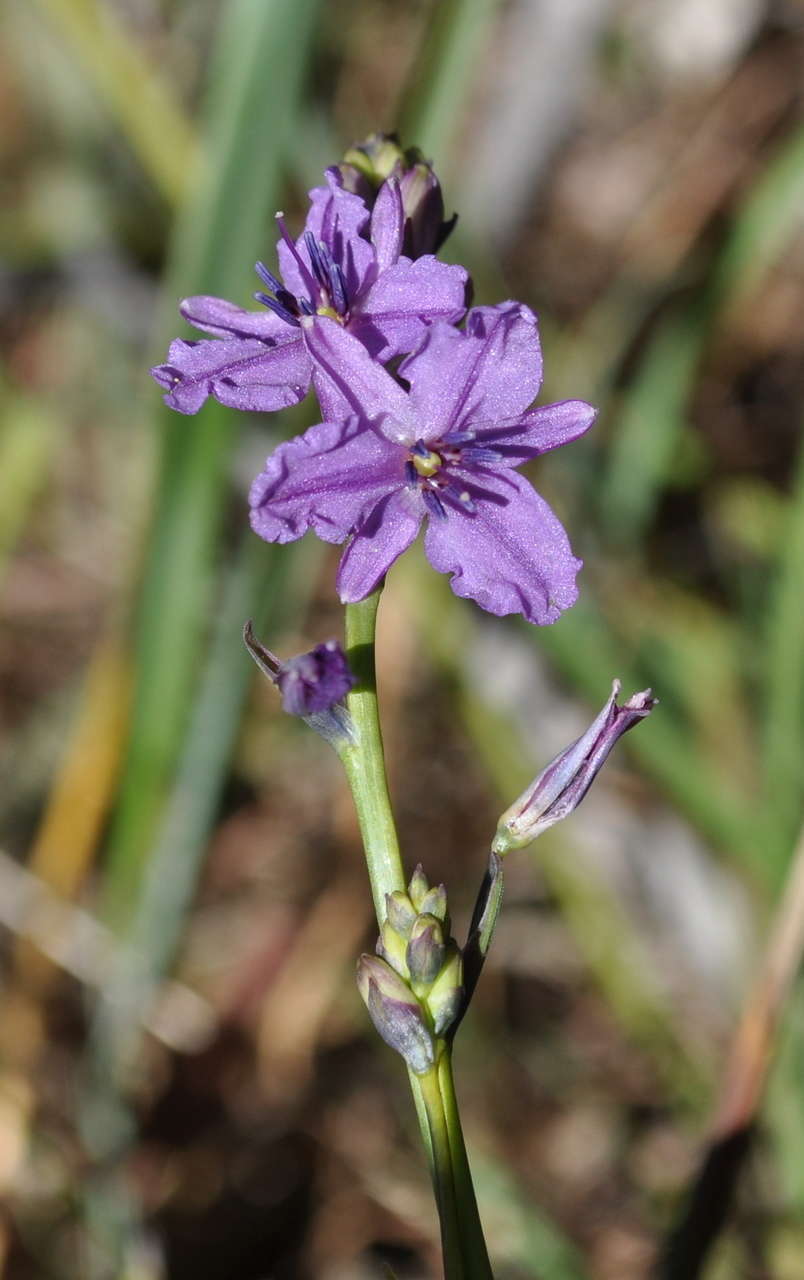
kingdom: Plantae
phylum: Tracheophyta
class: Liliopsida
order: Asparagales
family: Asparagaceae
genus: Arthropodium
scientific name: Arthropodium strictum
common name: Chocolate-lily
